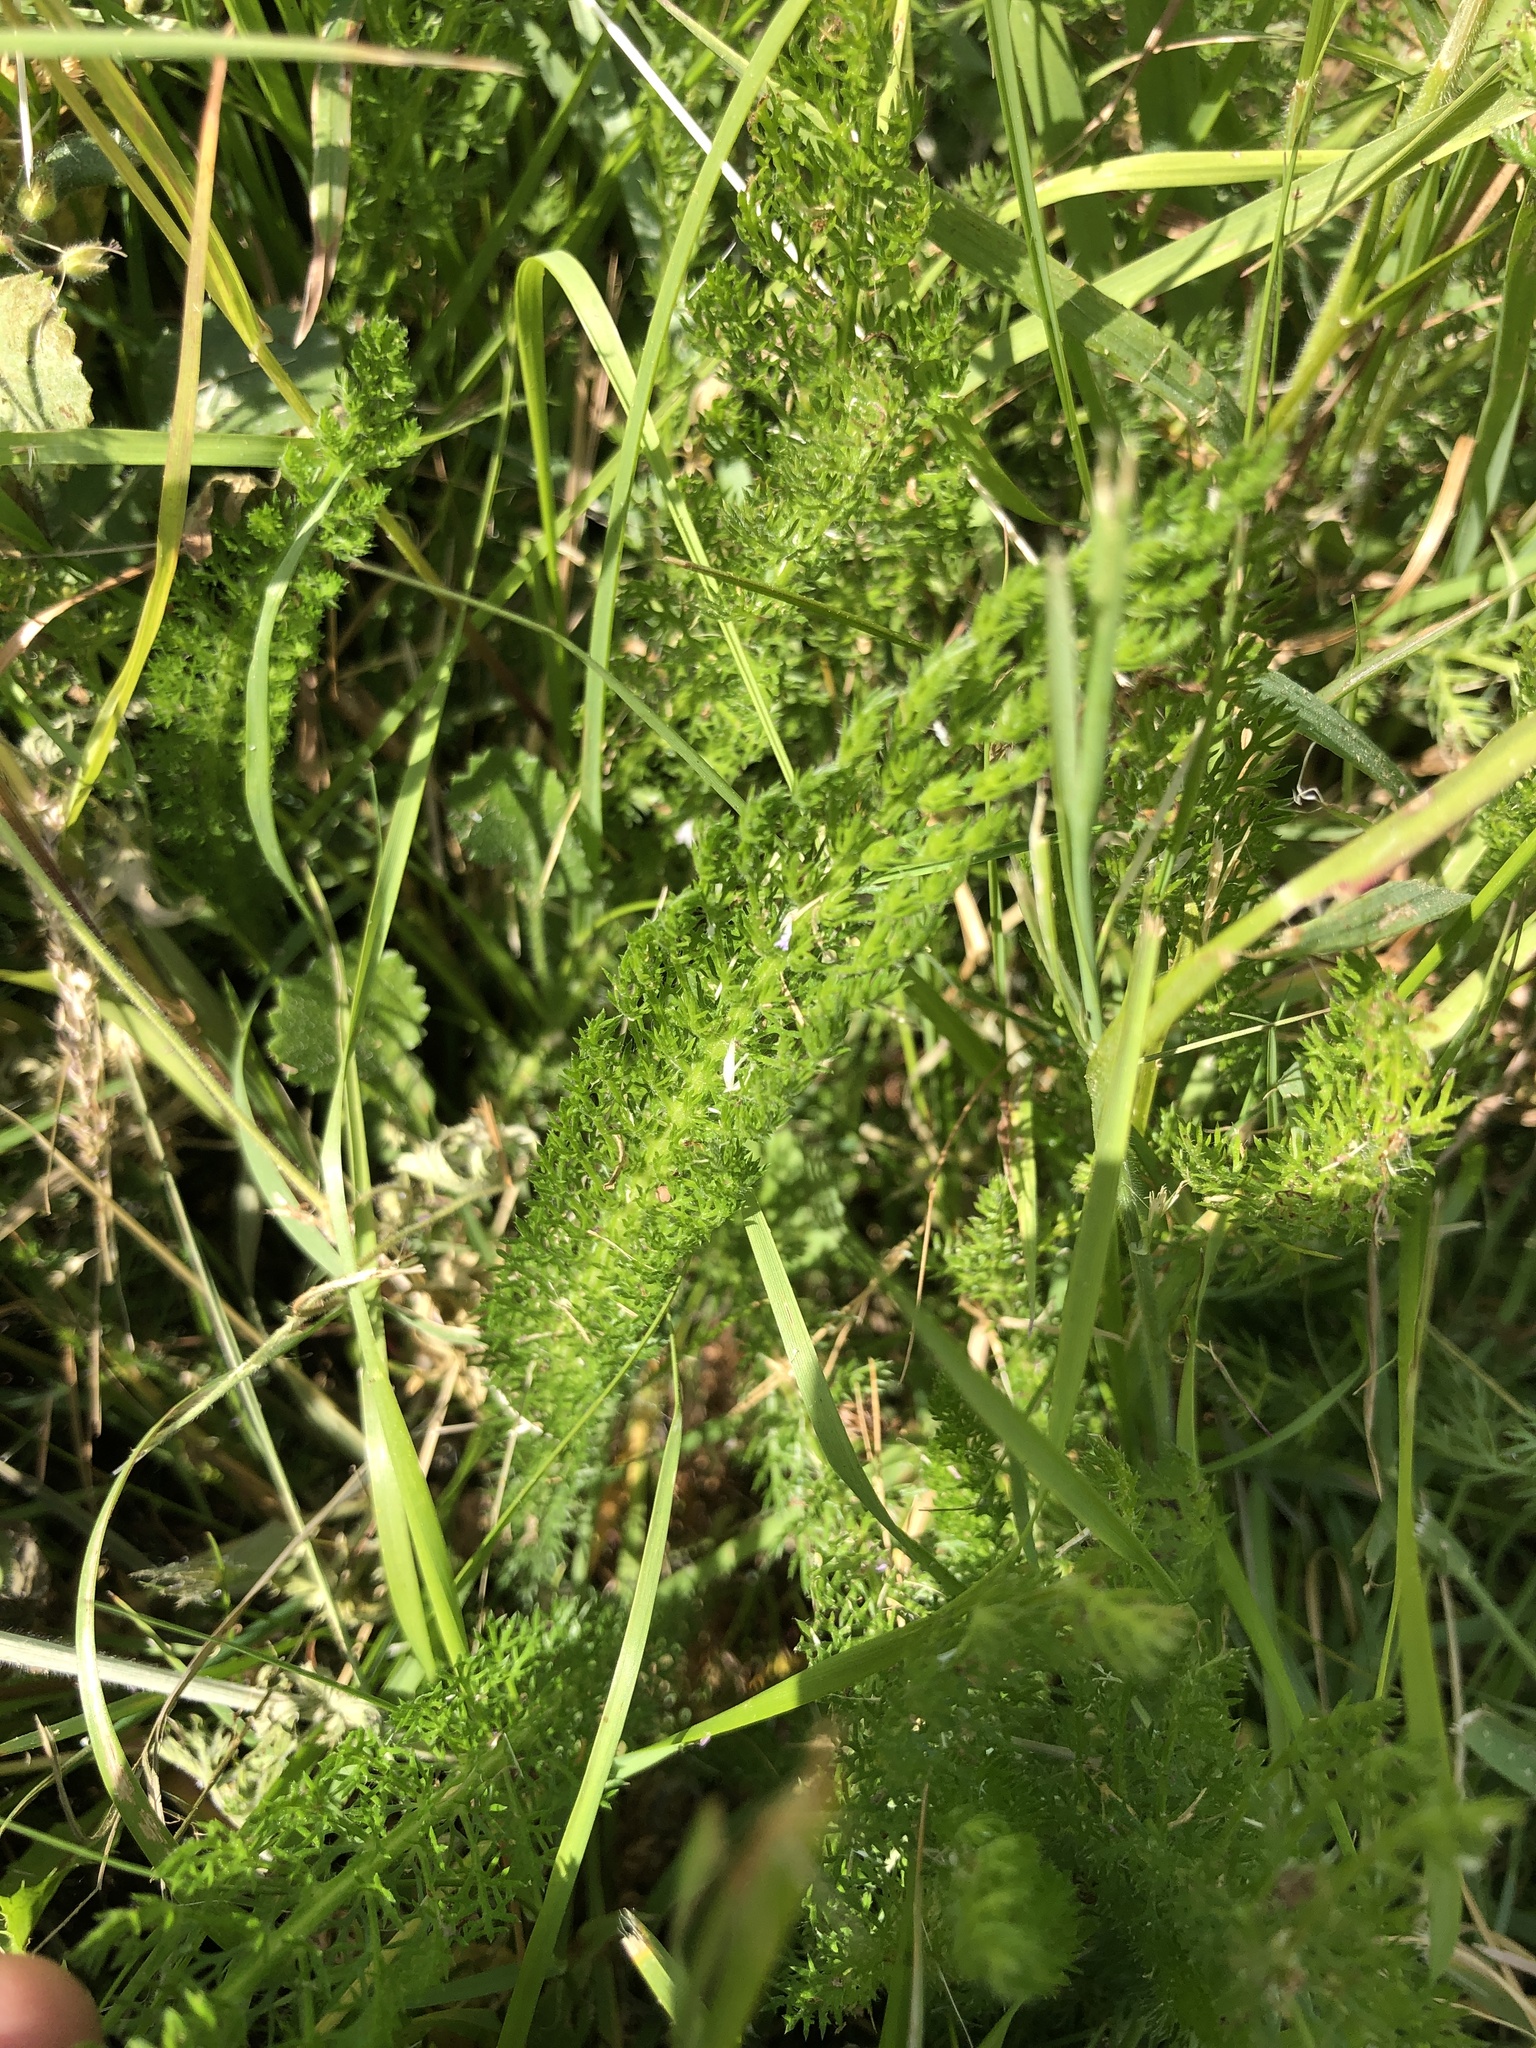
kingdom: Plantae
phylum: Tracheophyta
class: Magnoliopsida
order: Asterales
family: Asteraceae
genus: Achillea
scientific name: Achillea millefolium
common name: Yarrow
